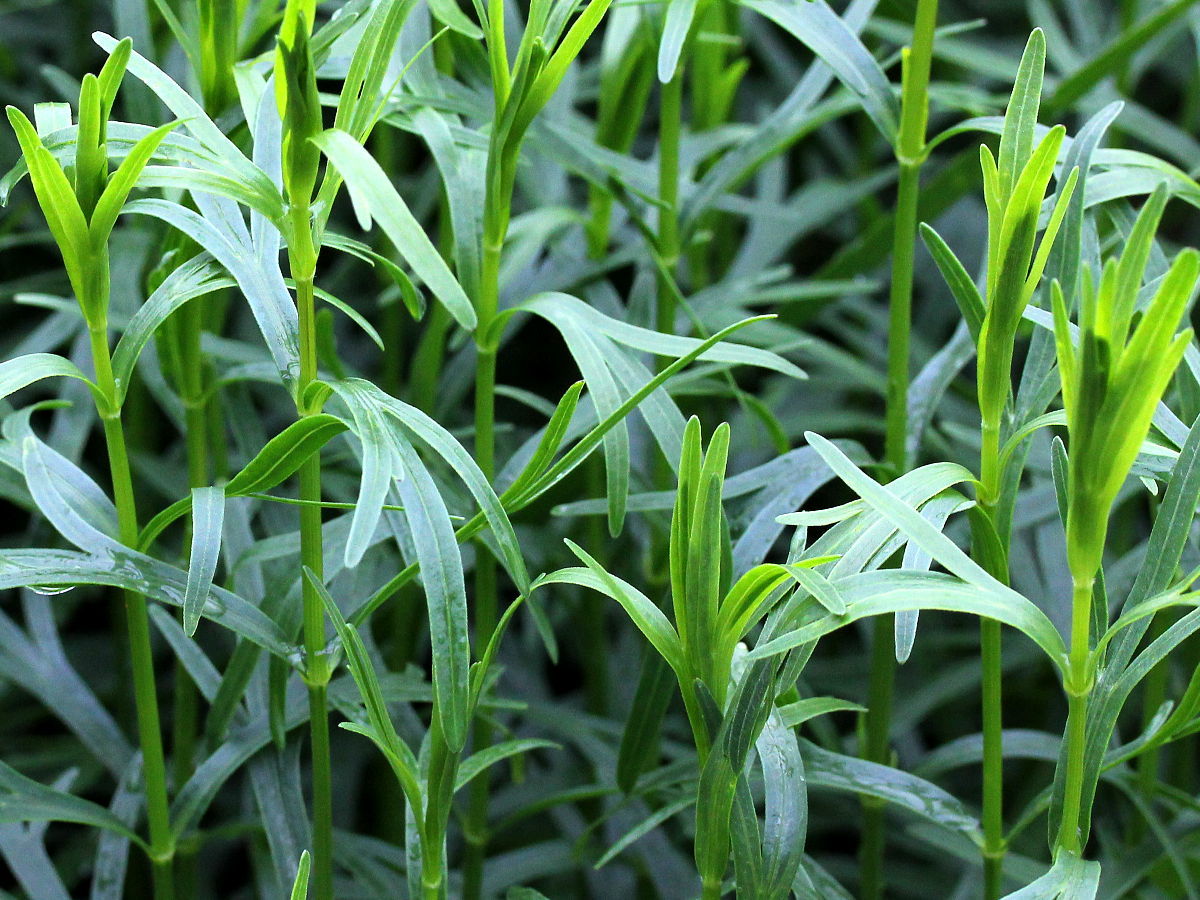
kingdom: Plantae
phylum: Tracheophyta
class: Magnoliopsida
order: Asterales
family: Asteraceae
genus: Coreopsis
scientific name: Coreopsis palmata
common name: Prairie coreopsis
